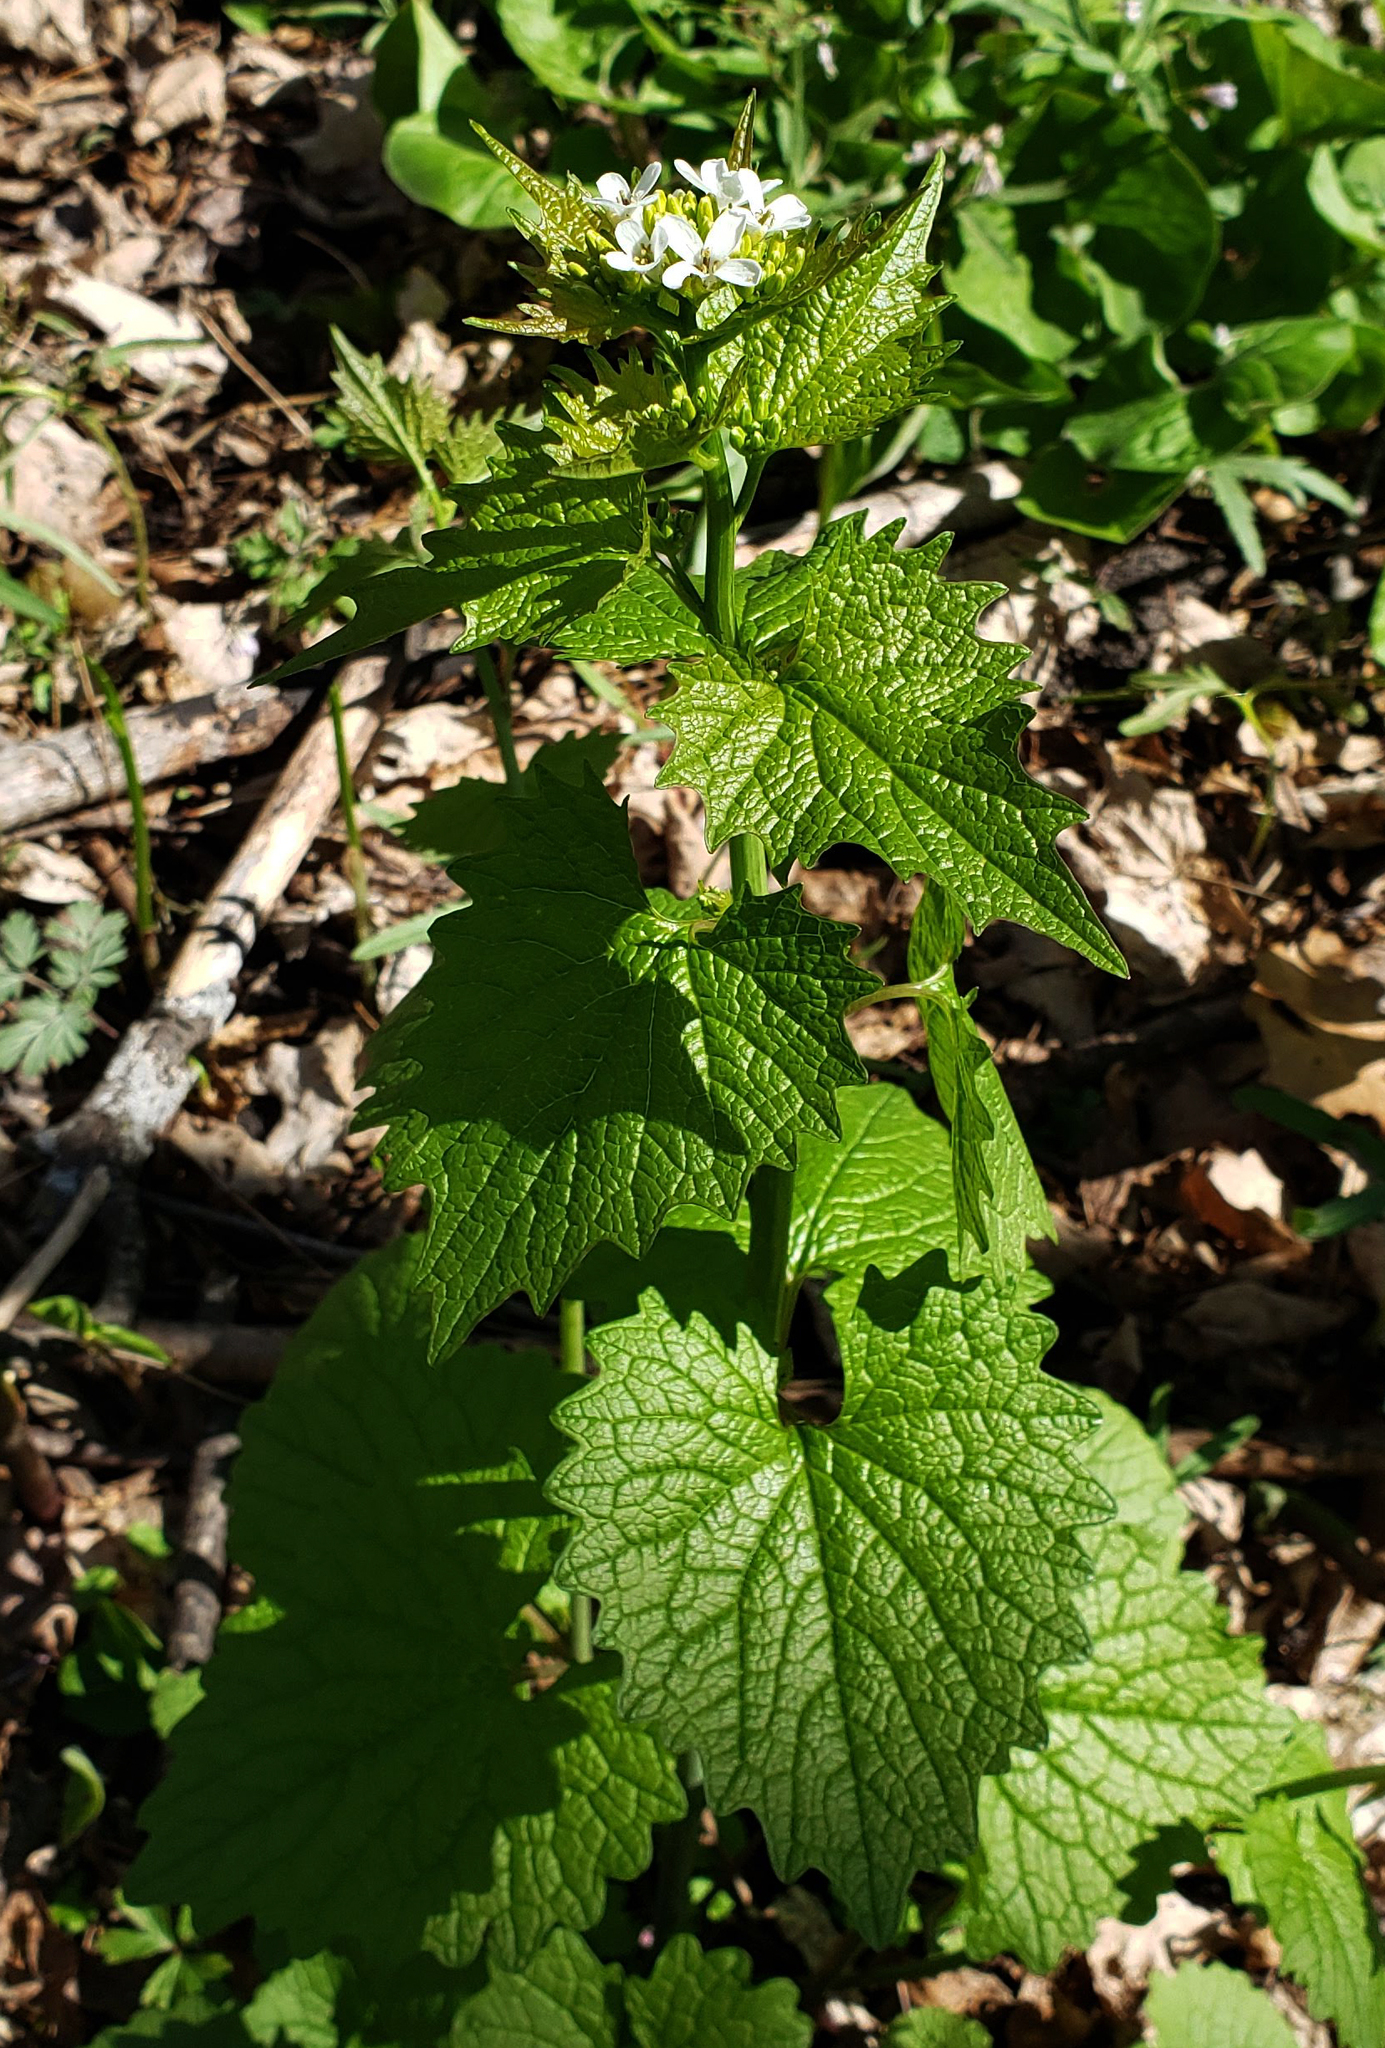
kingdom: Plantae
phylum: Tracheophyta
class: Magnoliopsida
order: Brassicales
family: Brassicaceae
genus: Alliaria
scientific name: Alliaria petiolata
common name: Garlic mustard
